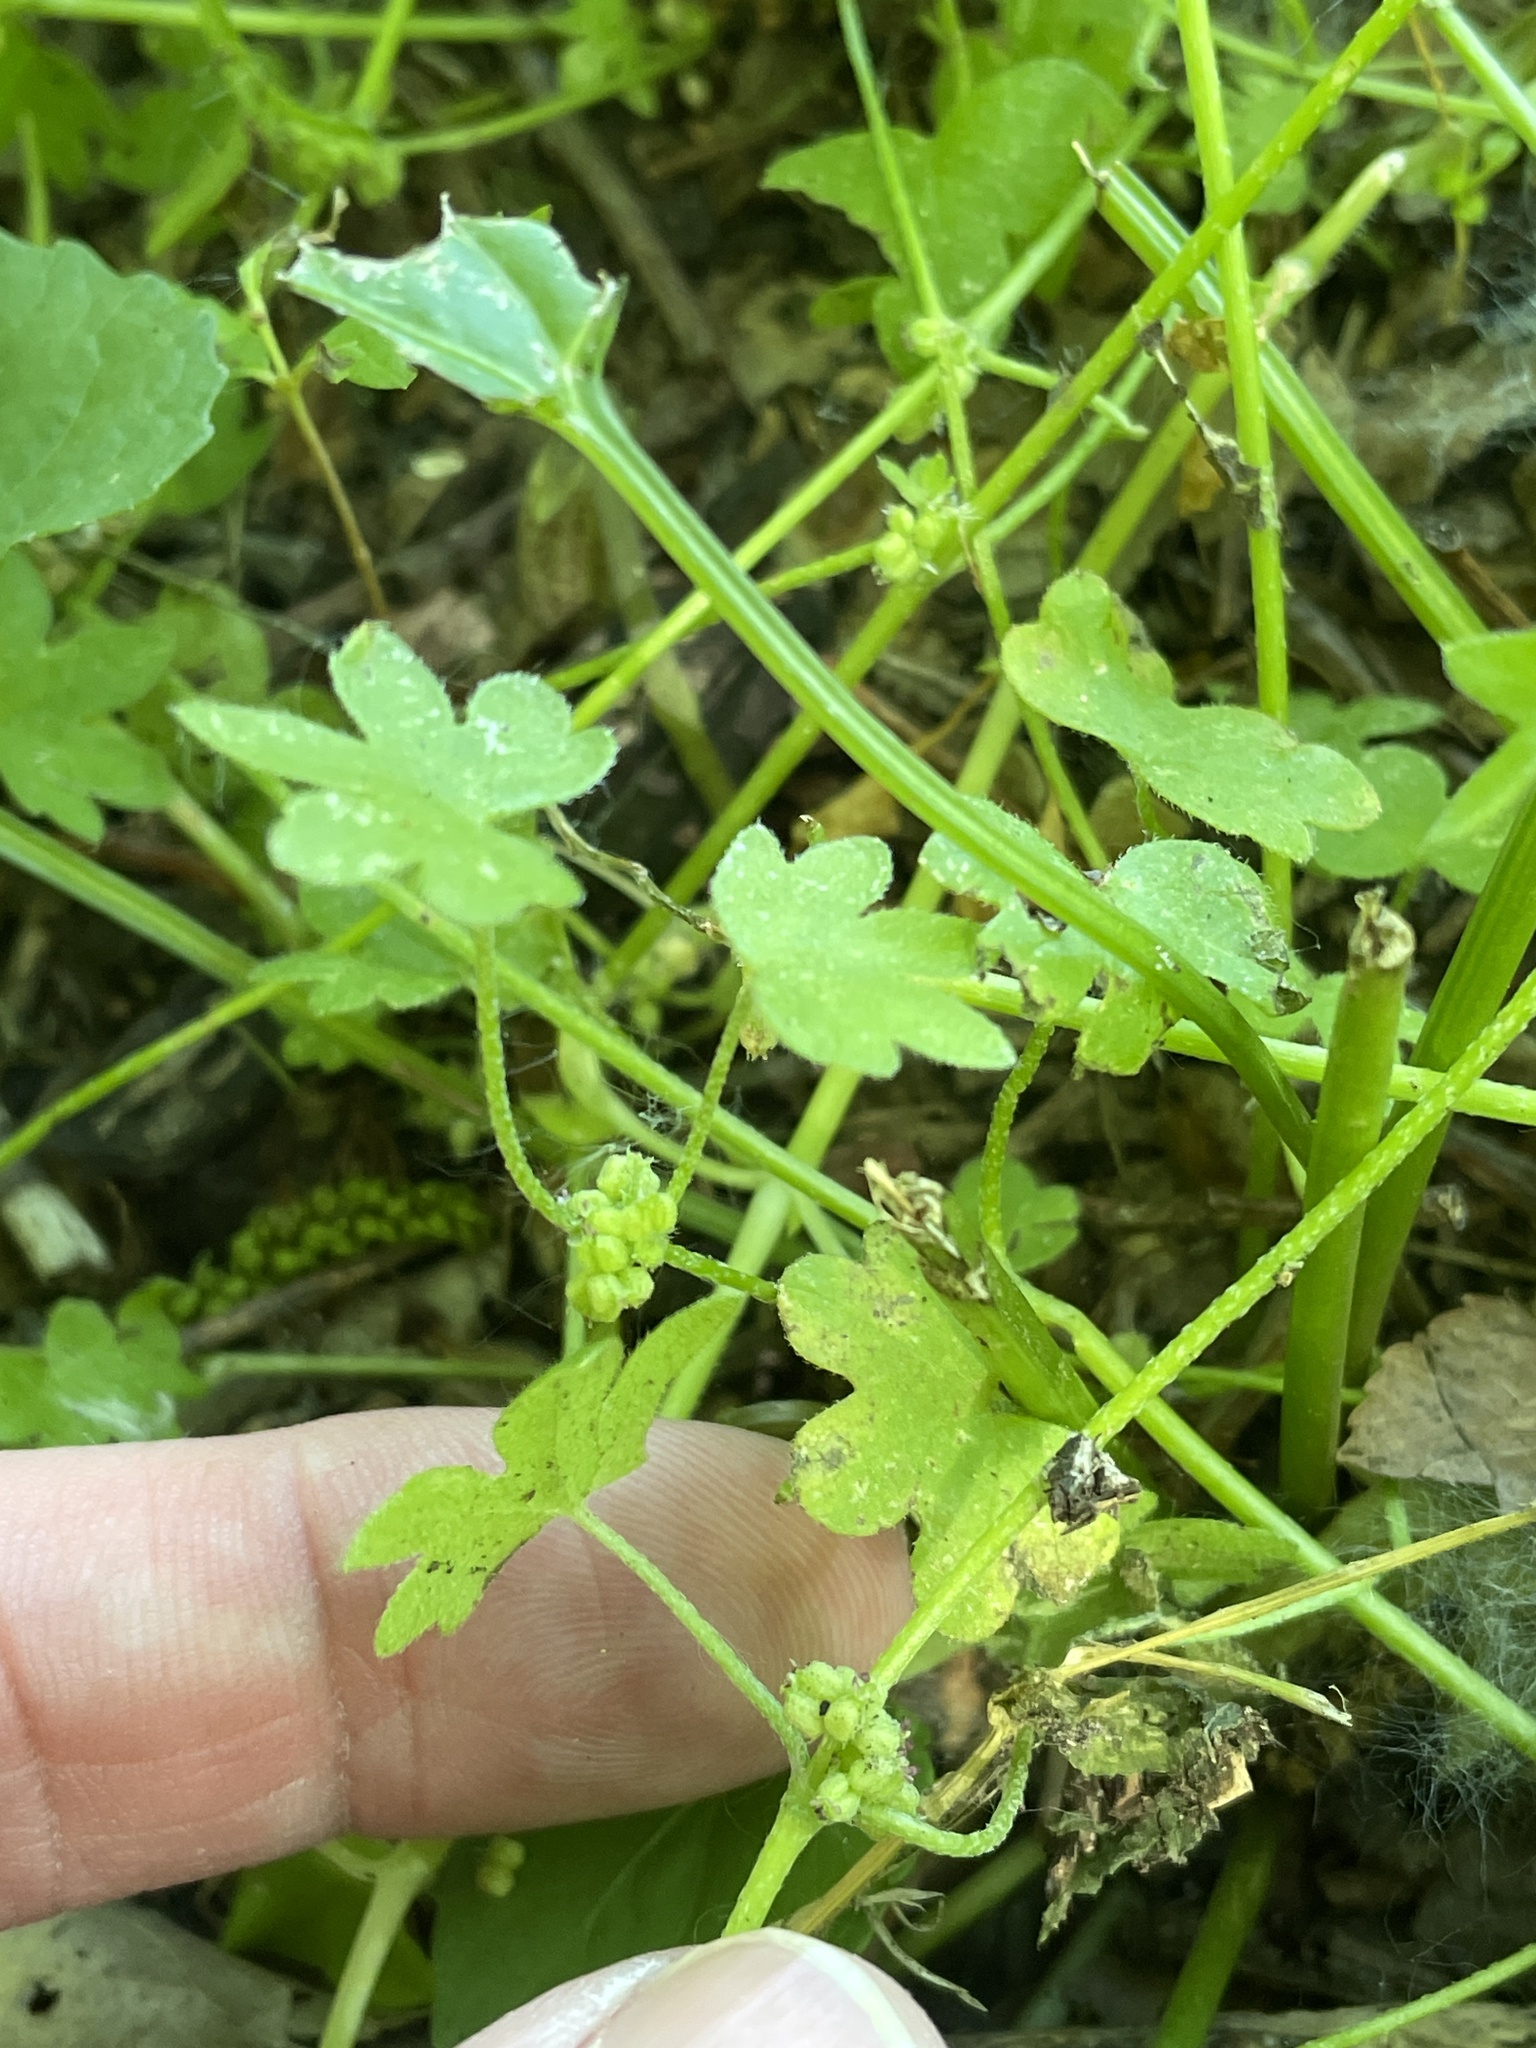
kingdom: Plantae
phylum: Tracheophyta
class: Magnoliopsida
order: Apiales
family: Apiaceae
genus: Bowlesia
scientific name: Bowlesia incana
